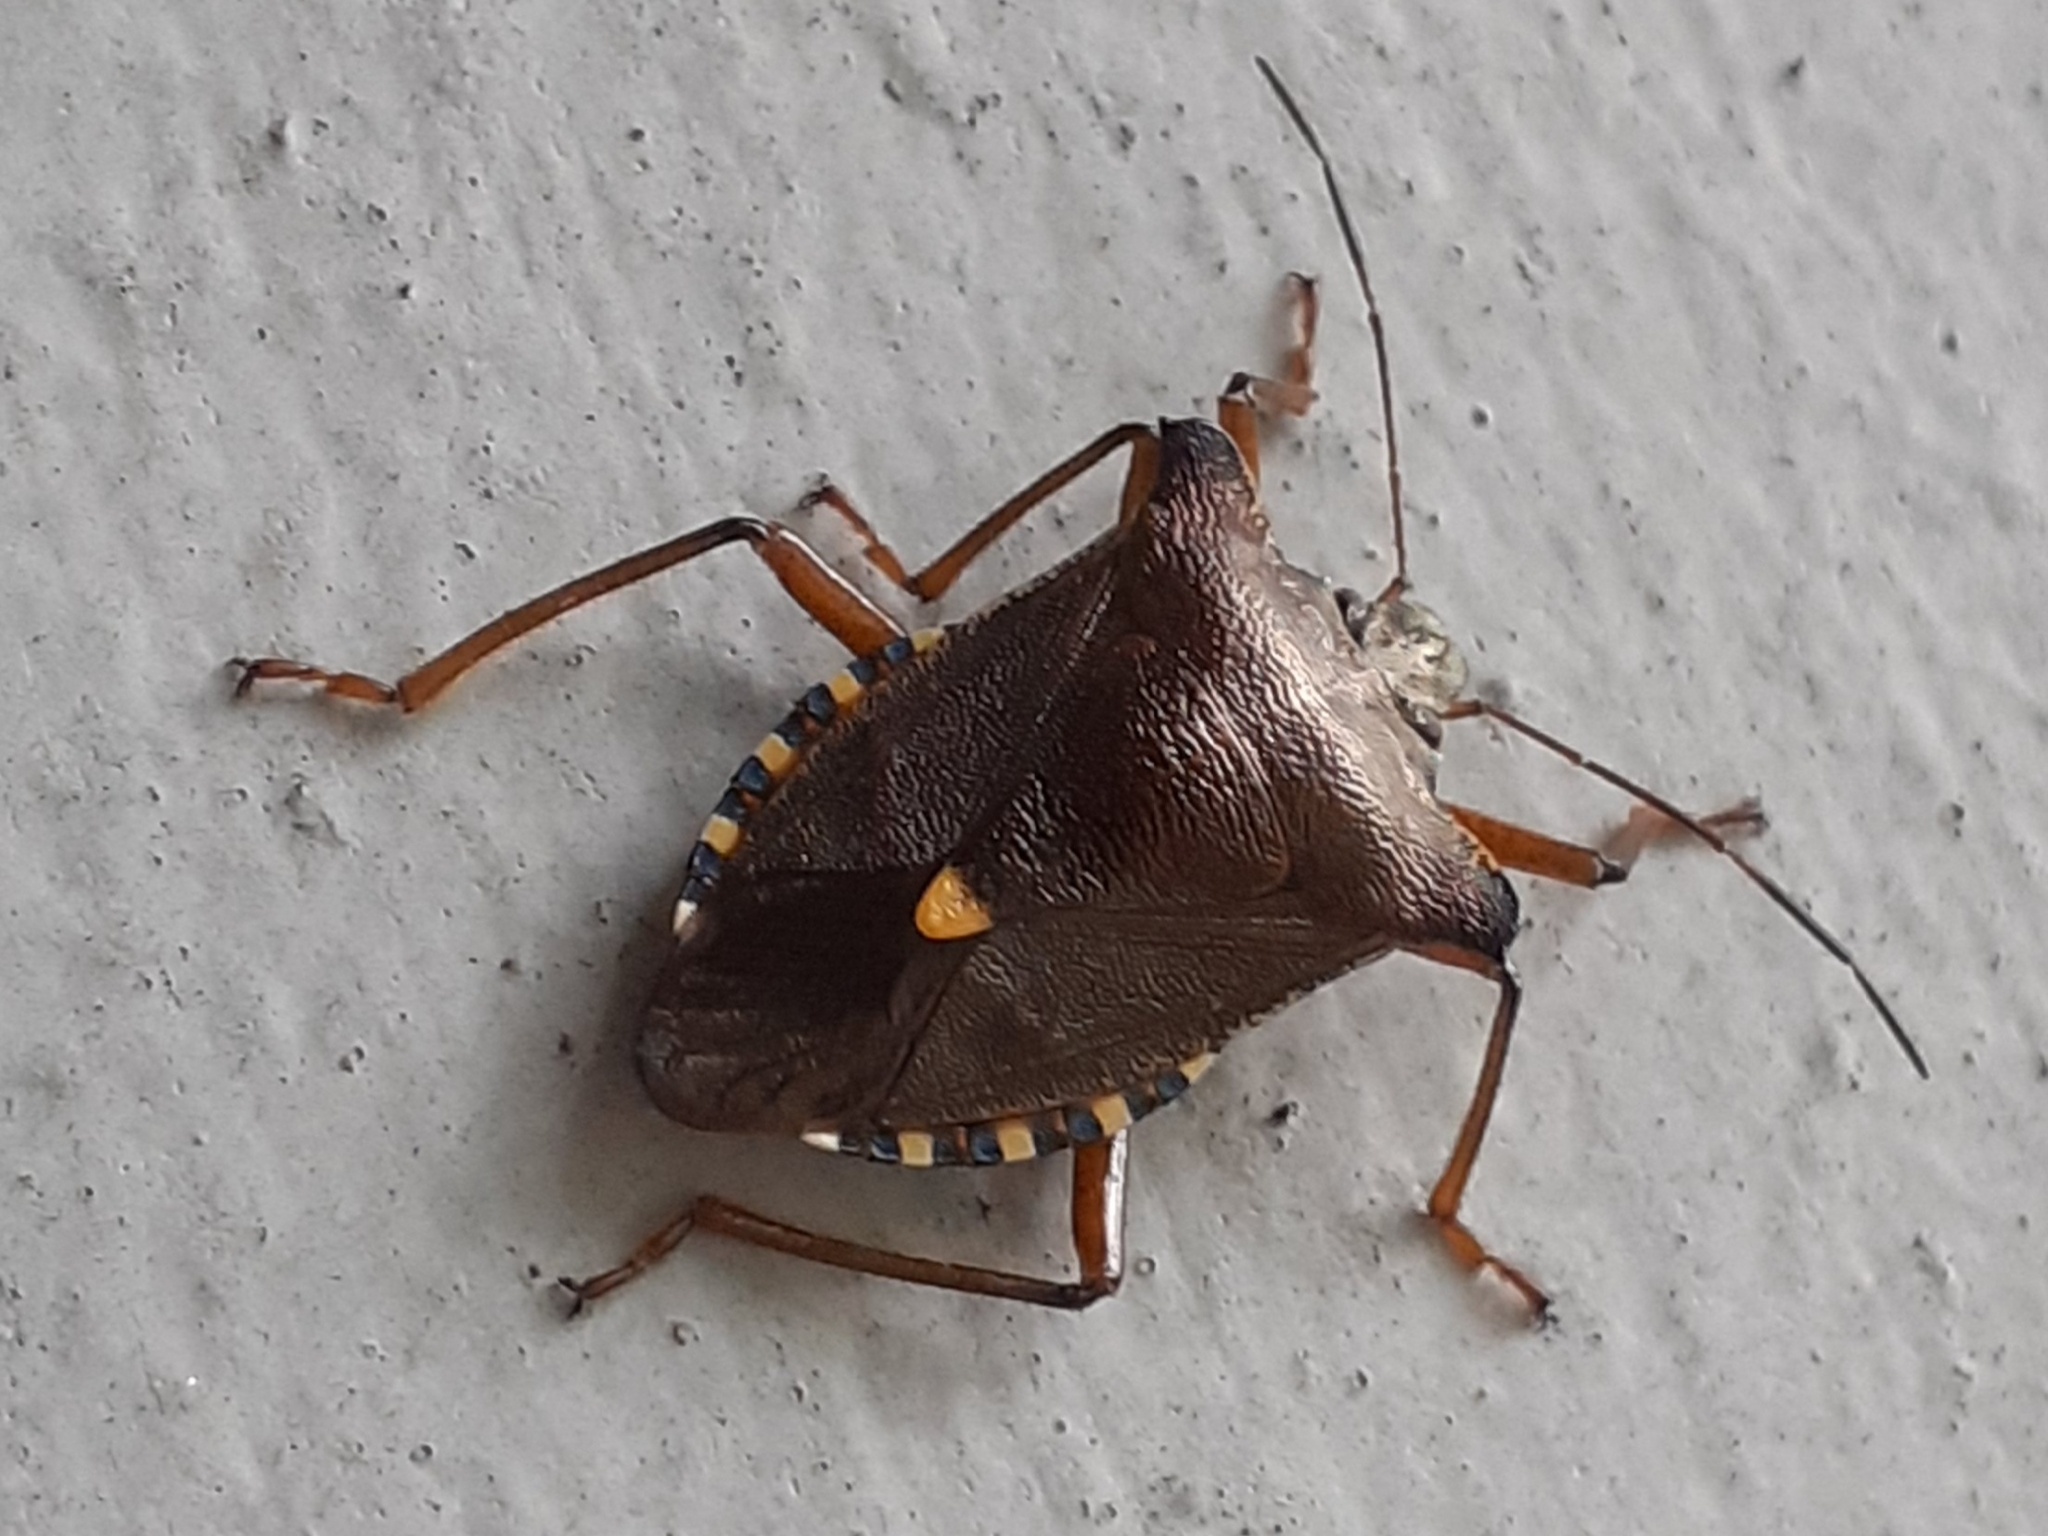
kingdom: Animalia
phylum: Arthropoda
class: Insecta
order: Hemiptera
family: Pentatomidae
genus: Pentatoma
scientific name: Pentatoma rufipes
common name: Forest bug
